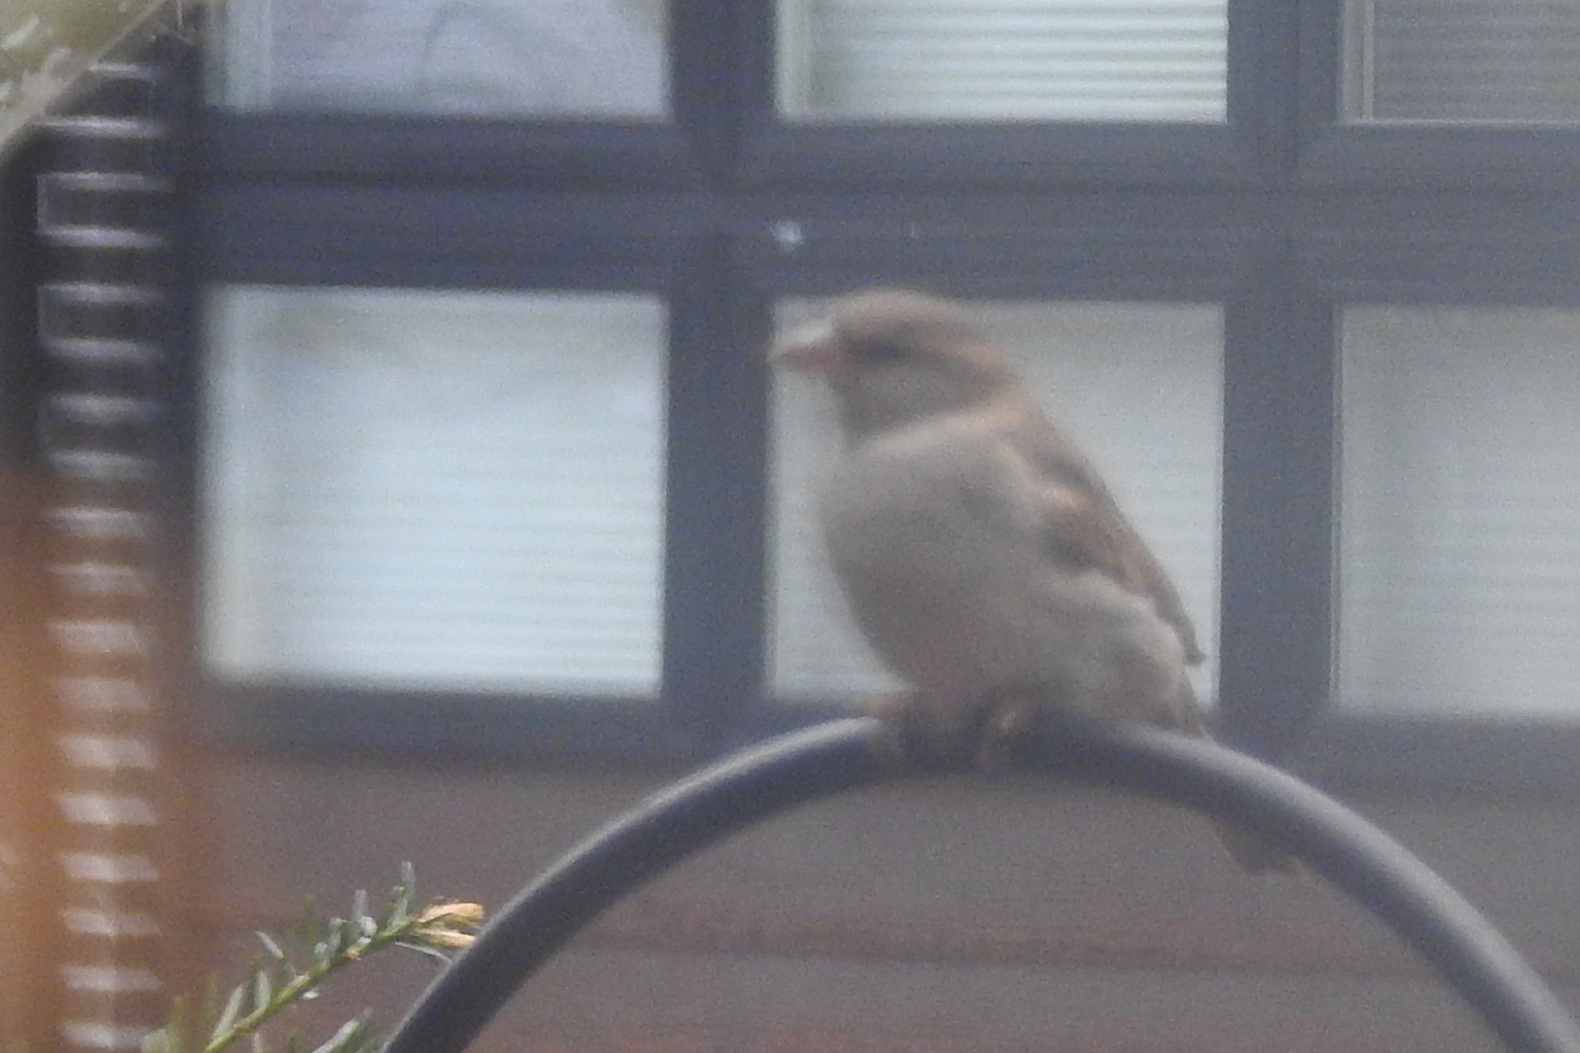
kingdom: Animalia
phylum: Chordata
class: Aves
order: Passeriformes
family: Passeridae
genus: Passer
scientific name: Passer domesticus
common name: House sparrow
